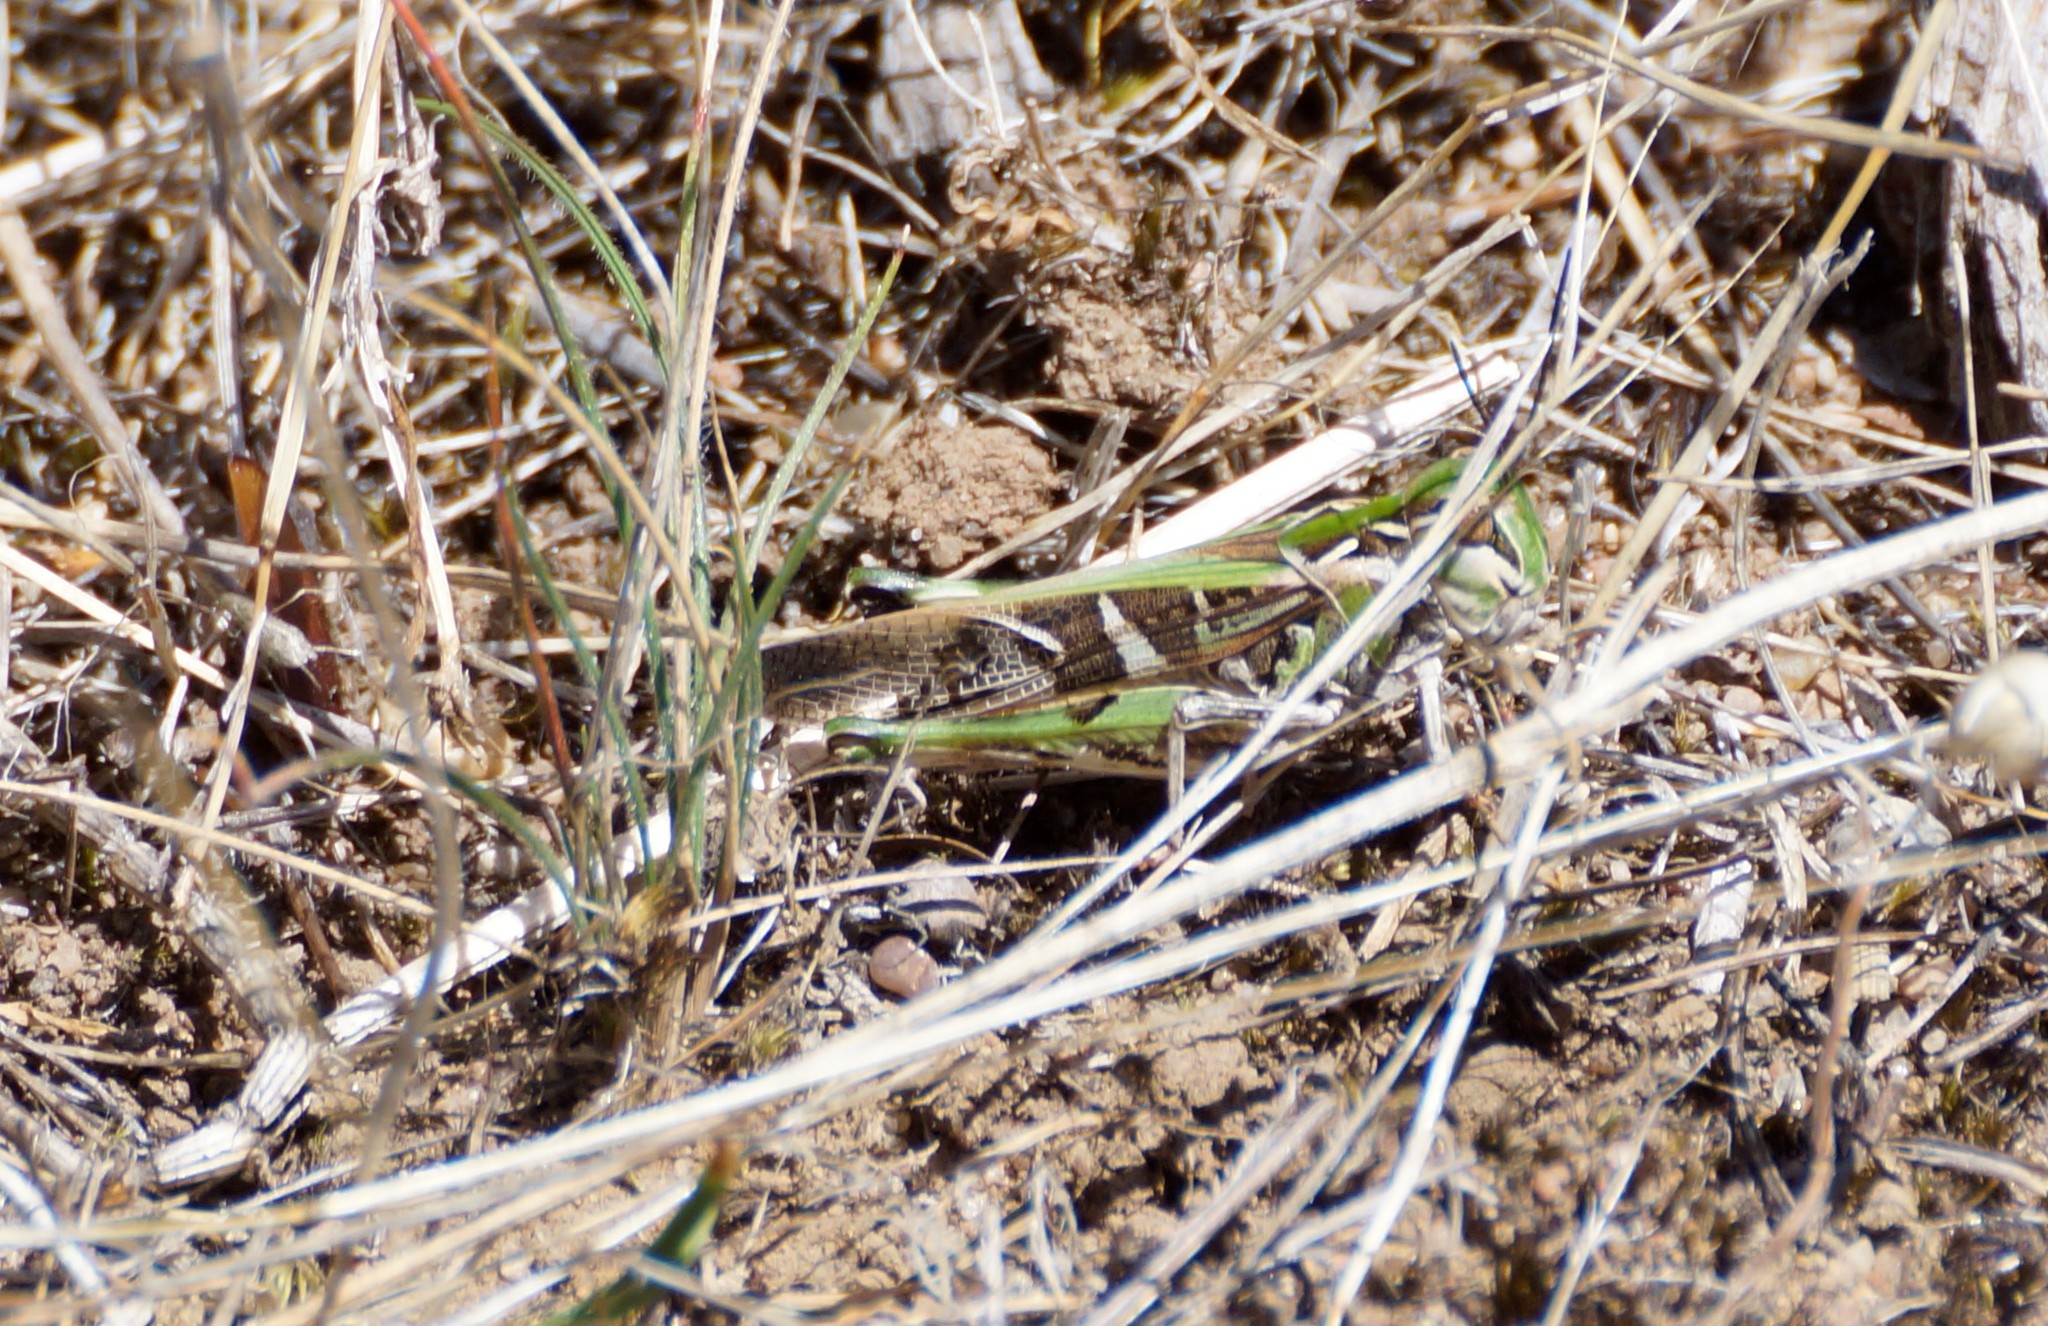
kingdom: Animalia
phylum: Arthropoda
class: Insecta
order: Orthoptera
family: Acrididae
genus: Oedaleus
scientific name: Oedaleus australis
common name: Eastern oedaleus
